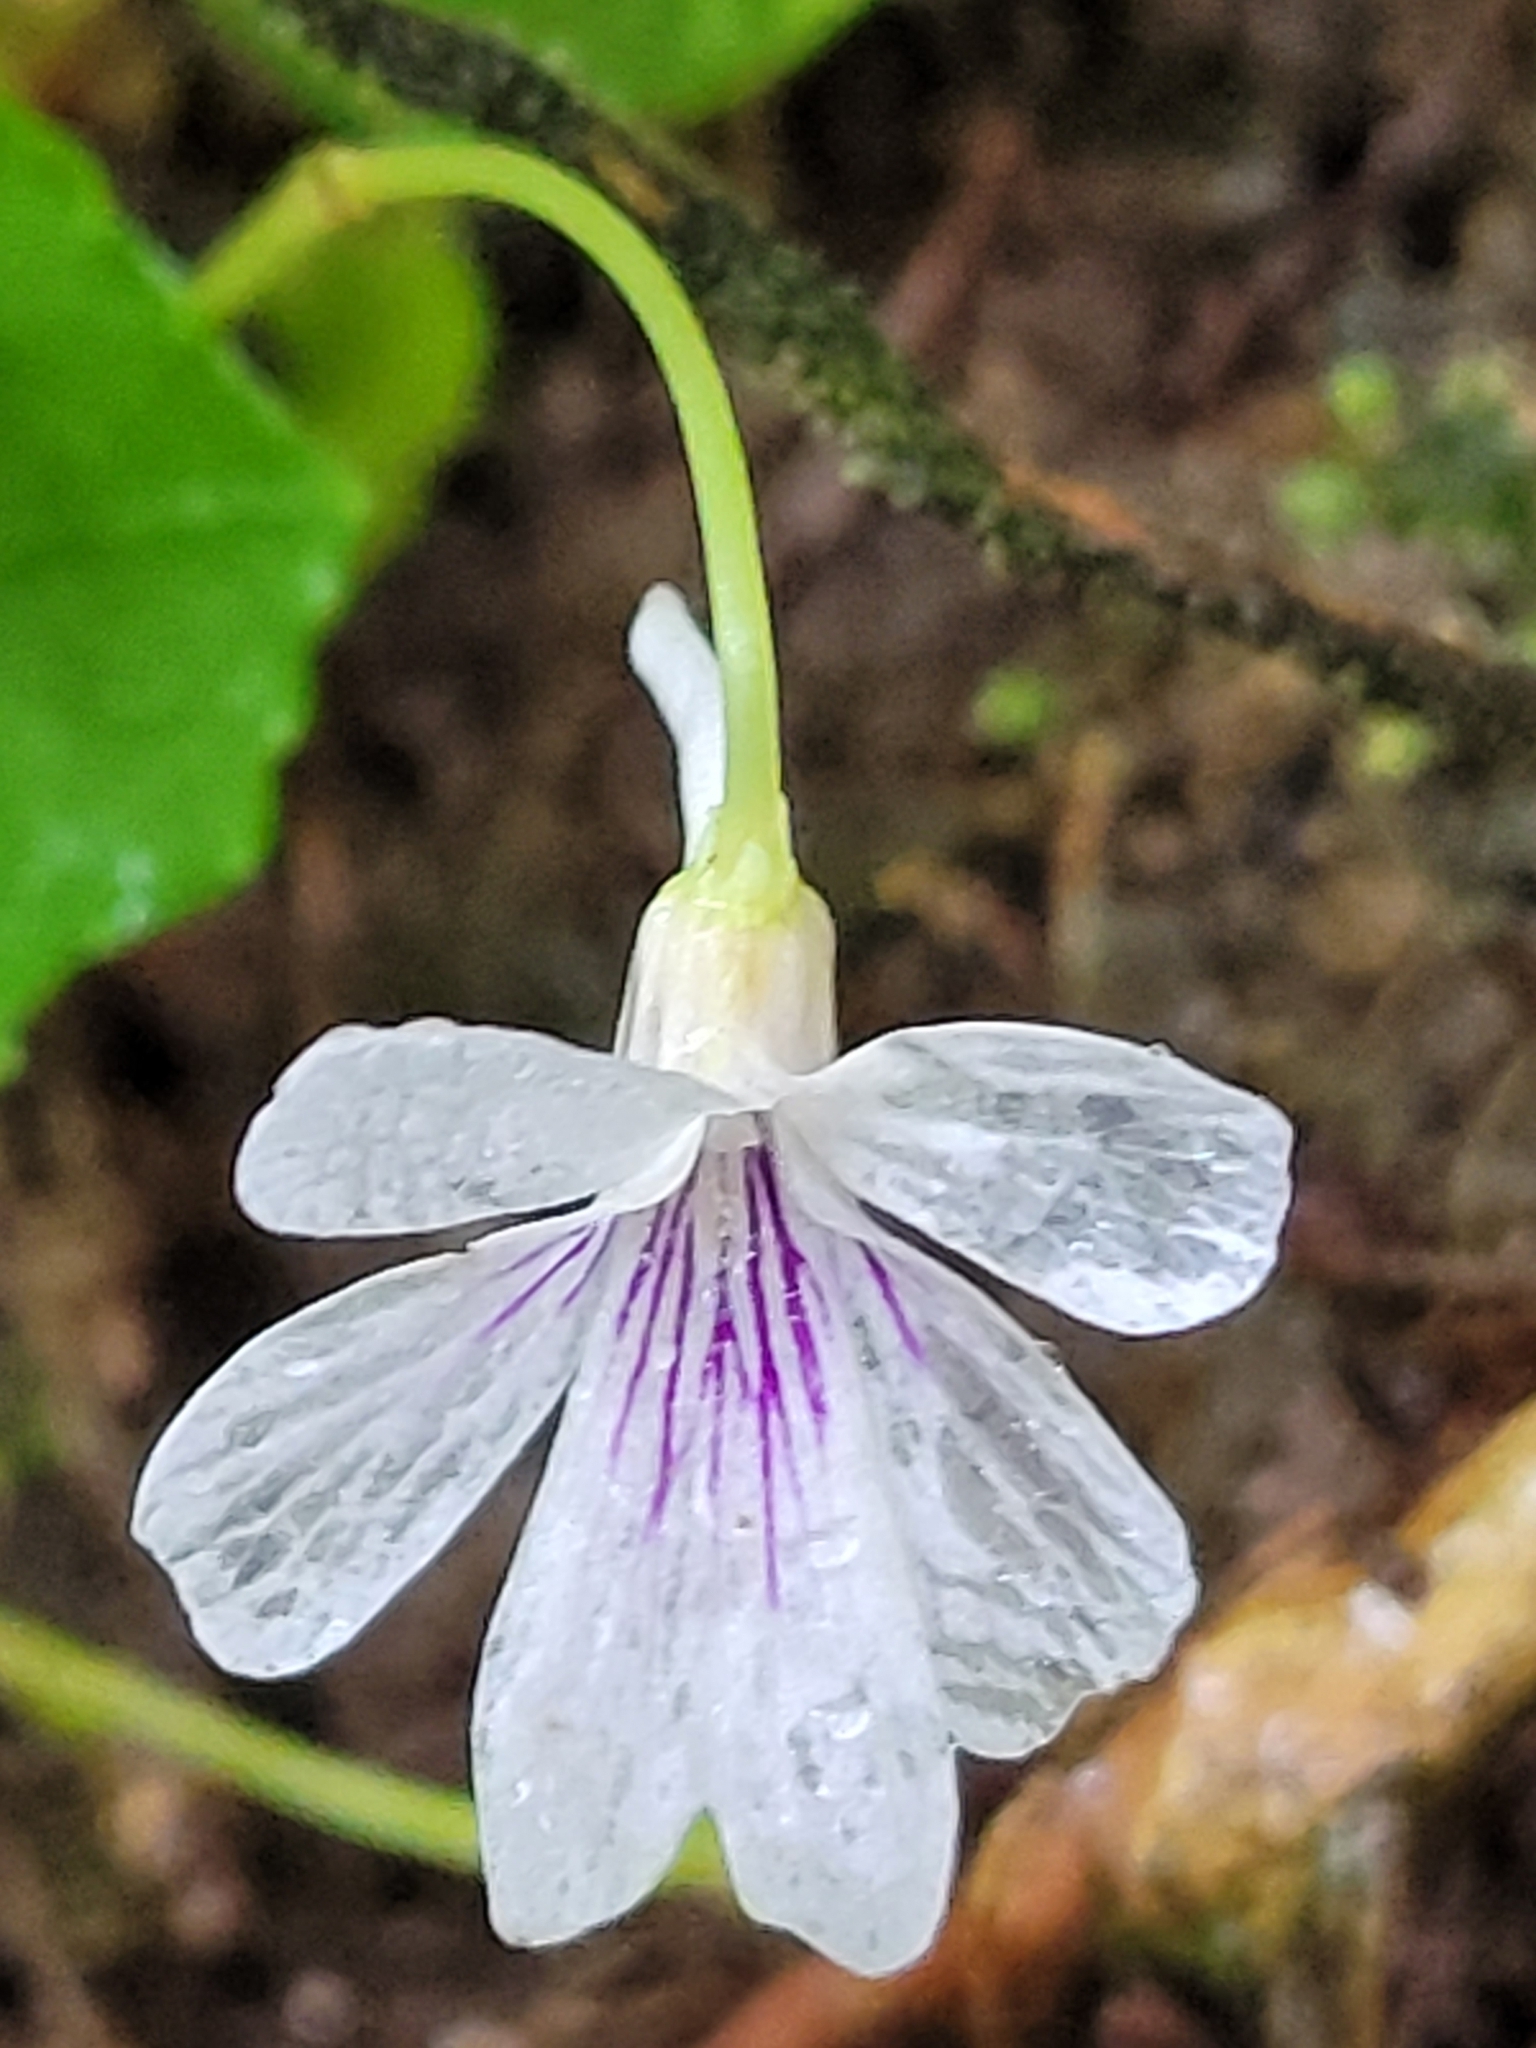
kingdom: Plantae
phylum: Tracheophyta
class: Magnoliopsida
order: Malpighiales
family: Violaceae
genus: Viola
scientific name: Viola formosana
